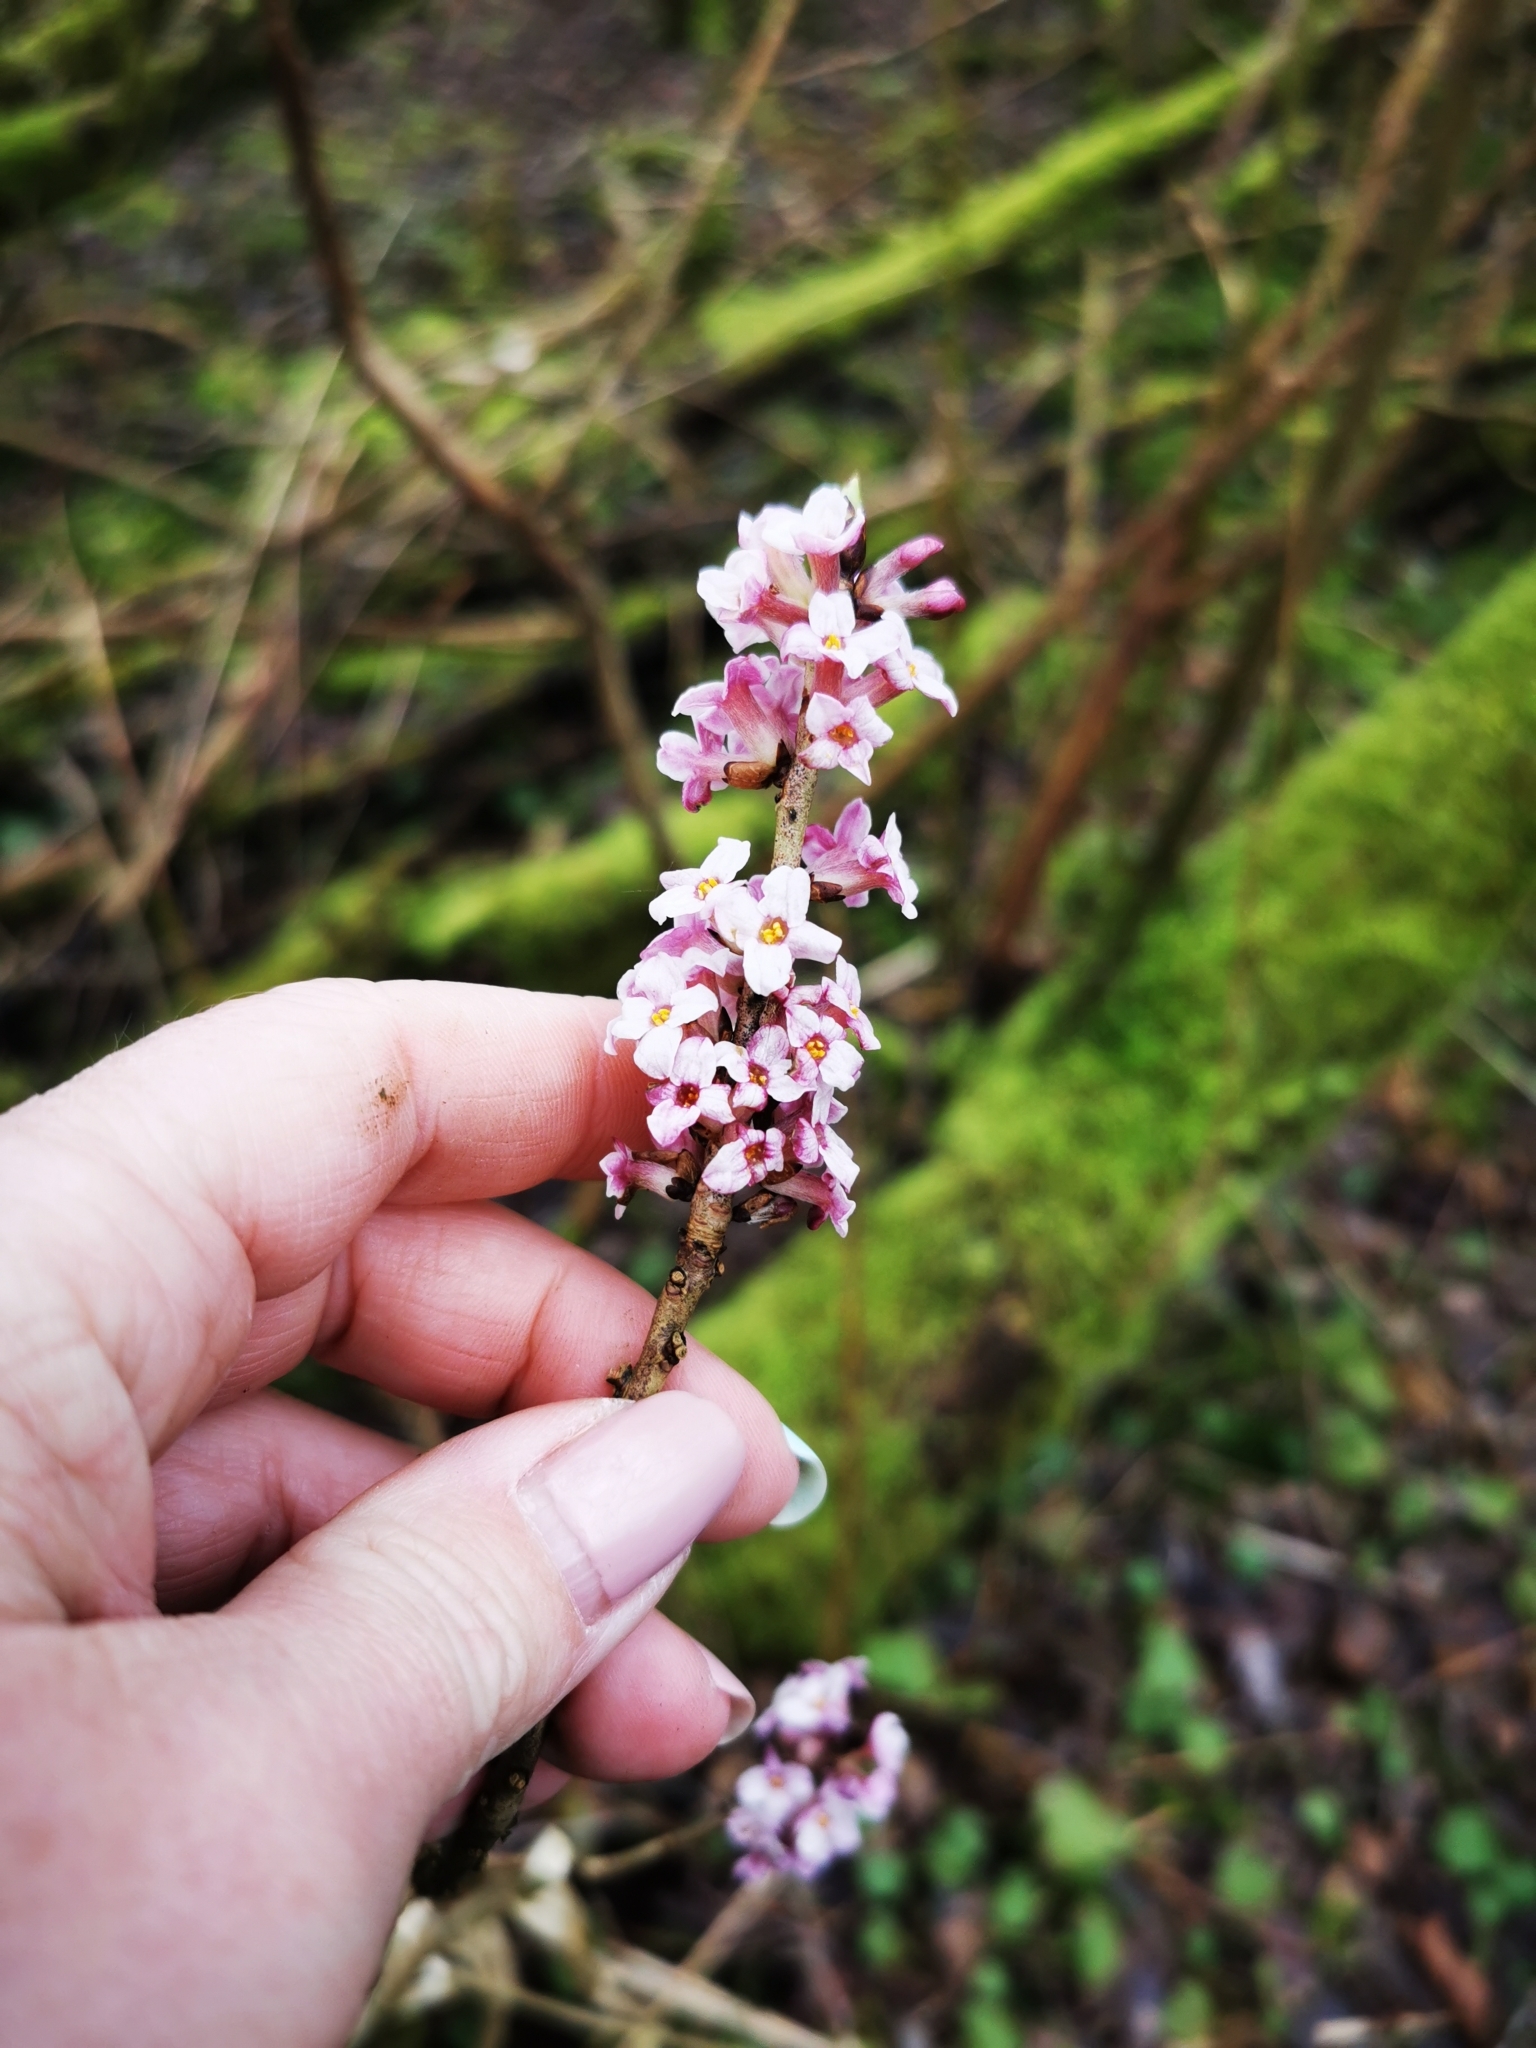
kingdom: Plantae
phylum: Tracheophyta
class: Magnoliopsida
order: Malvales
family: Thymelaeaceae
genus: Daphne
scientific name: Daphne mezereum
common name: Mezereon
